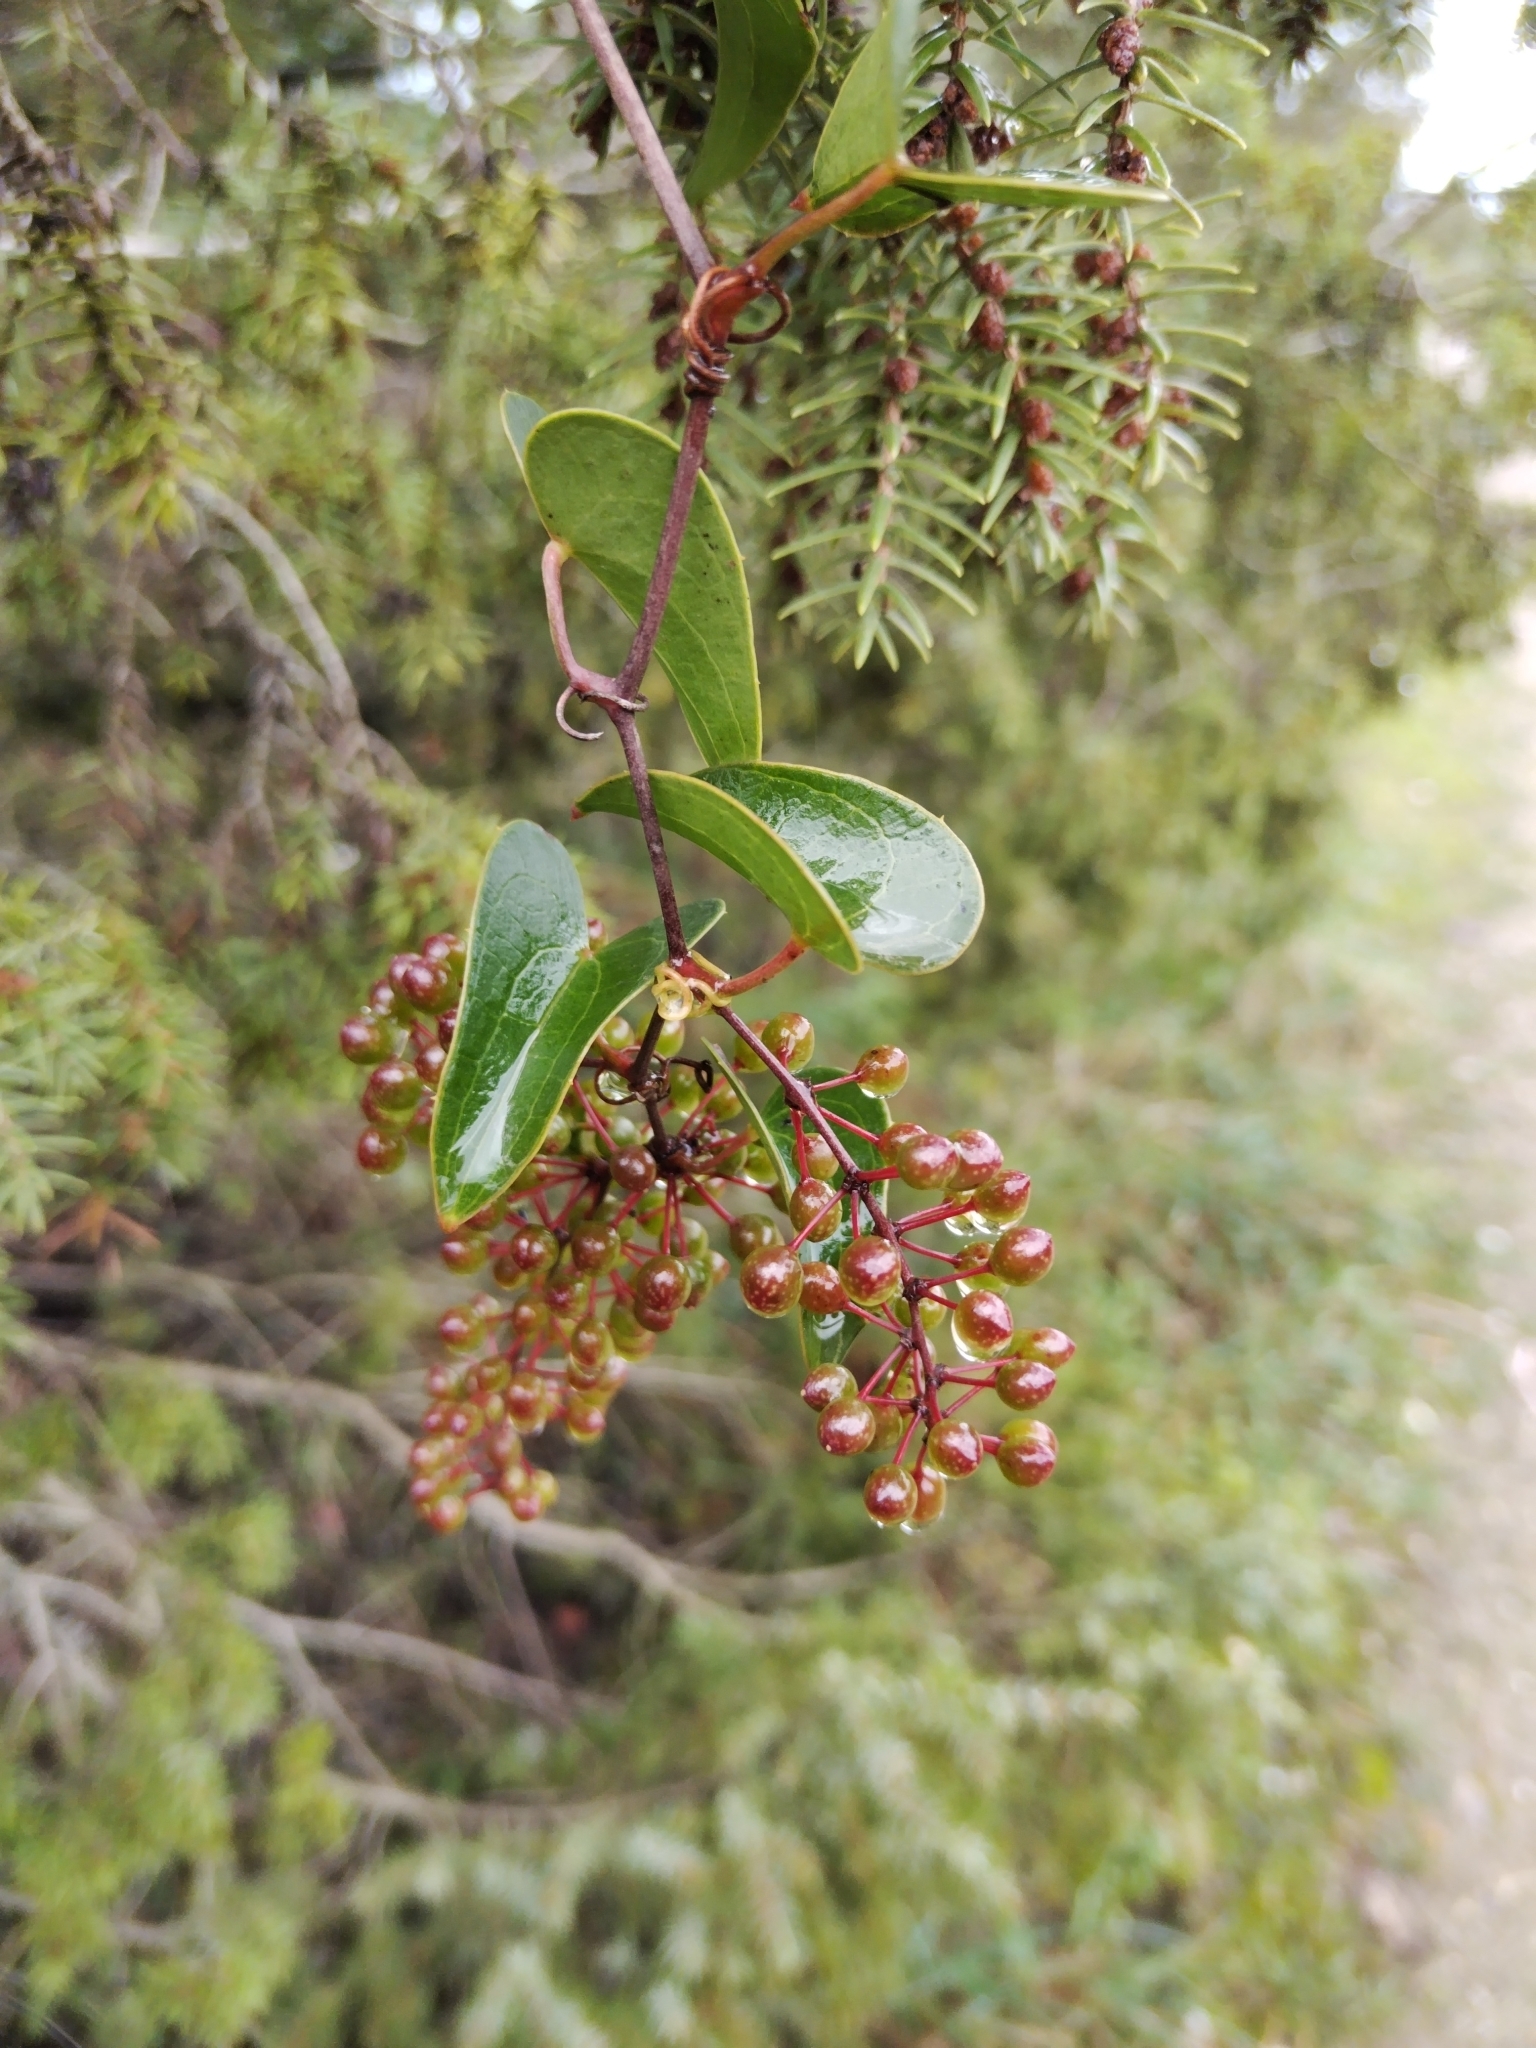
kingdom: Plantae
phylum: Tracheophyta
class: Liliopsida
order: Liliales
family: Smilacaceae
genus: Smilax
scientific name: Smilax aspera
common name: Common smilax
